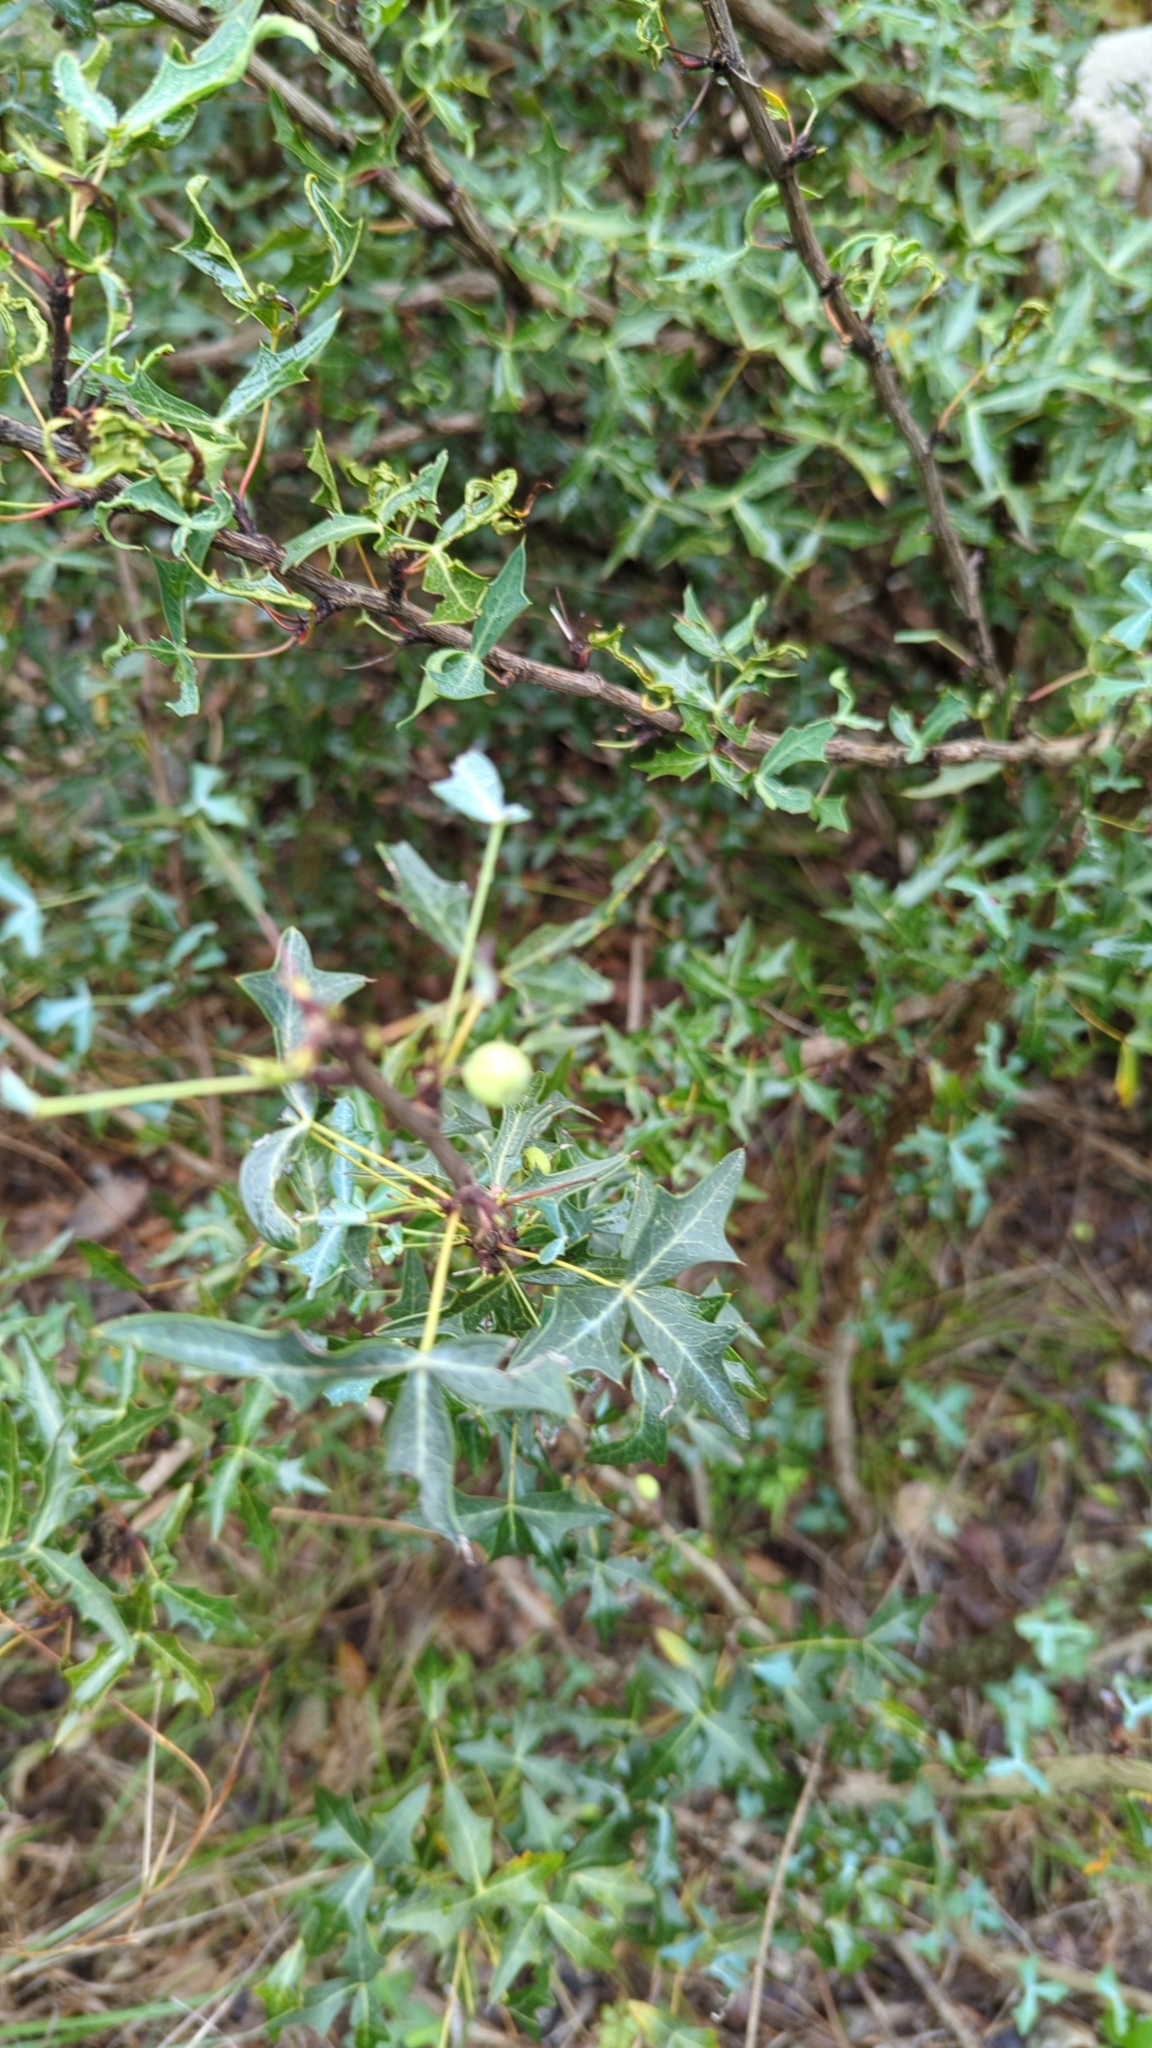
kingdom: Plantae
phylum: Tracheophyta
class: Magnoliopsida
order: Ranunculales
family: Berberidaceae
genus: Alloberberis
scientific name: Alloberberis trifoliolata
